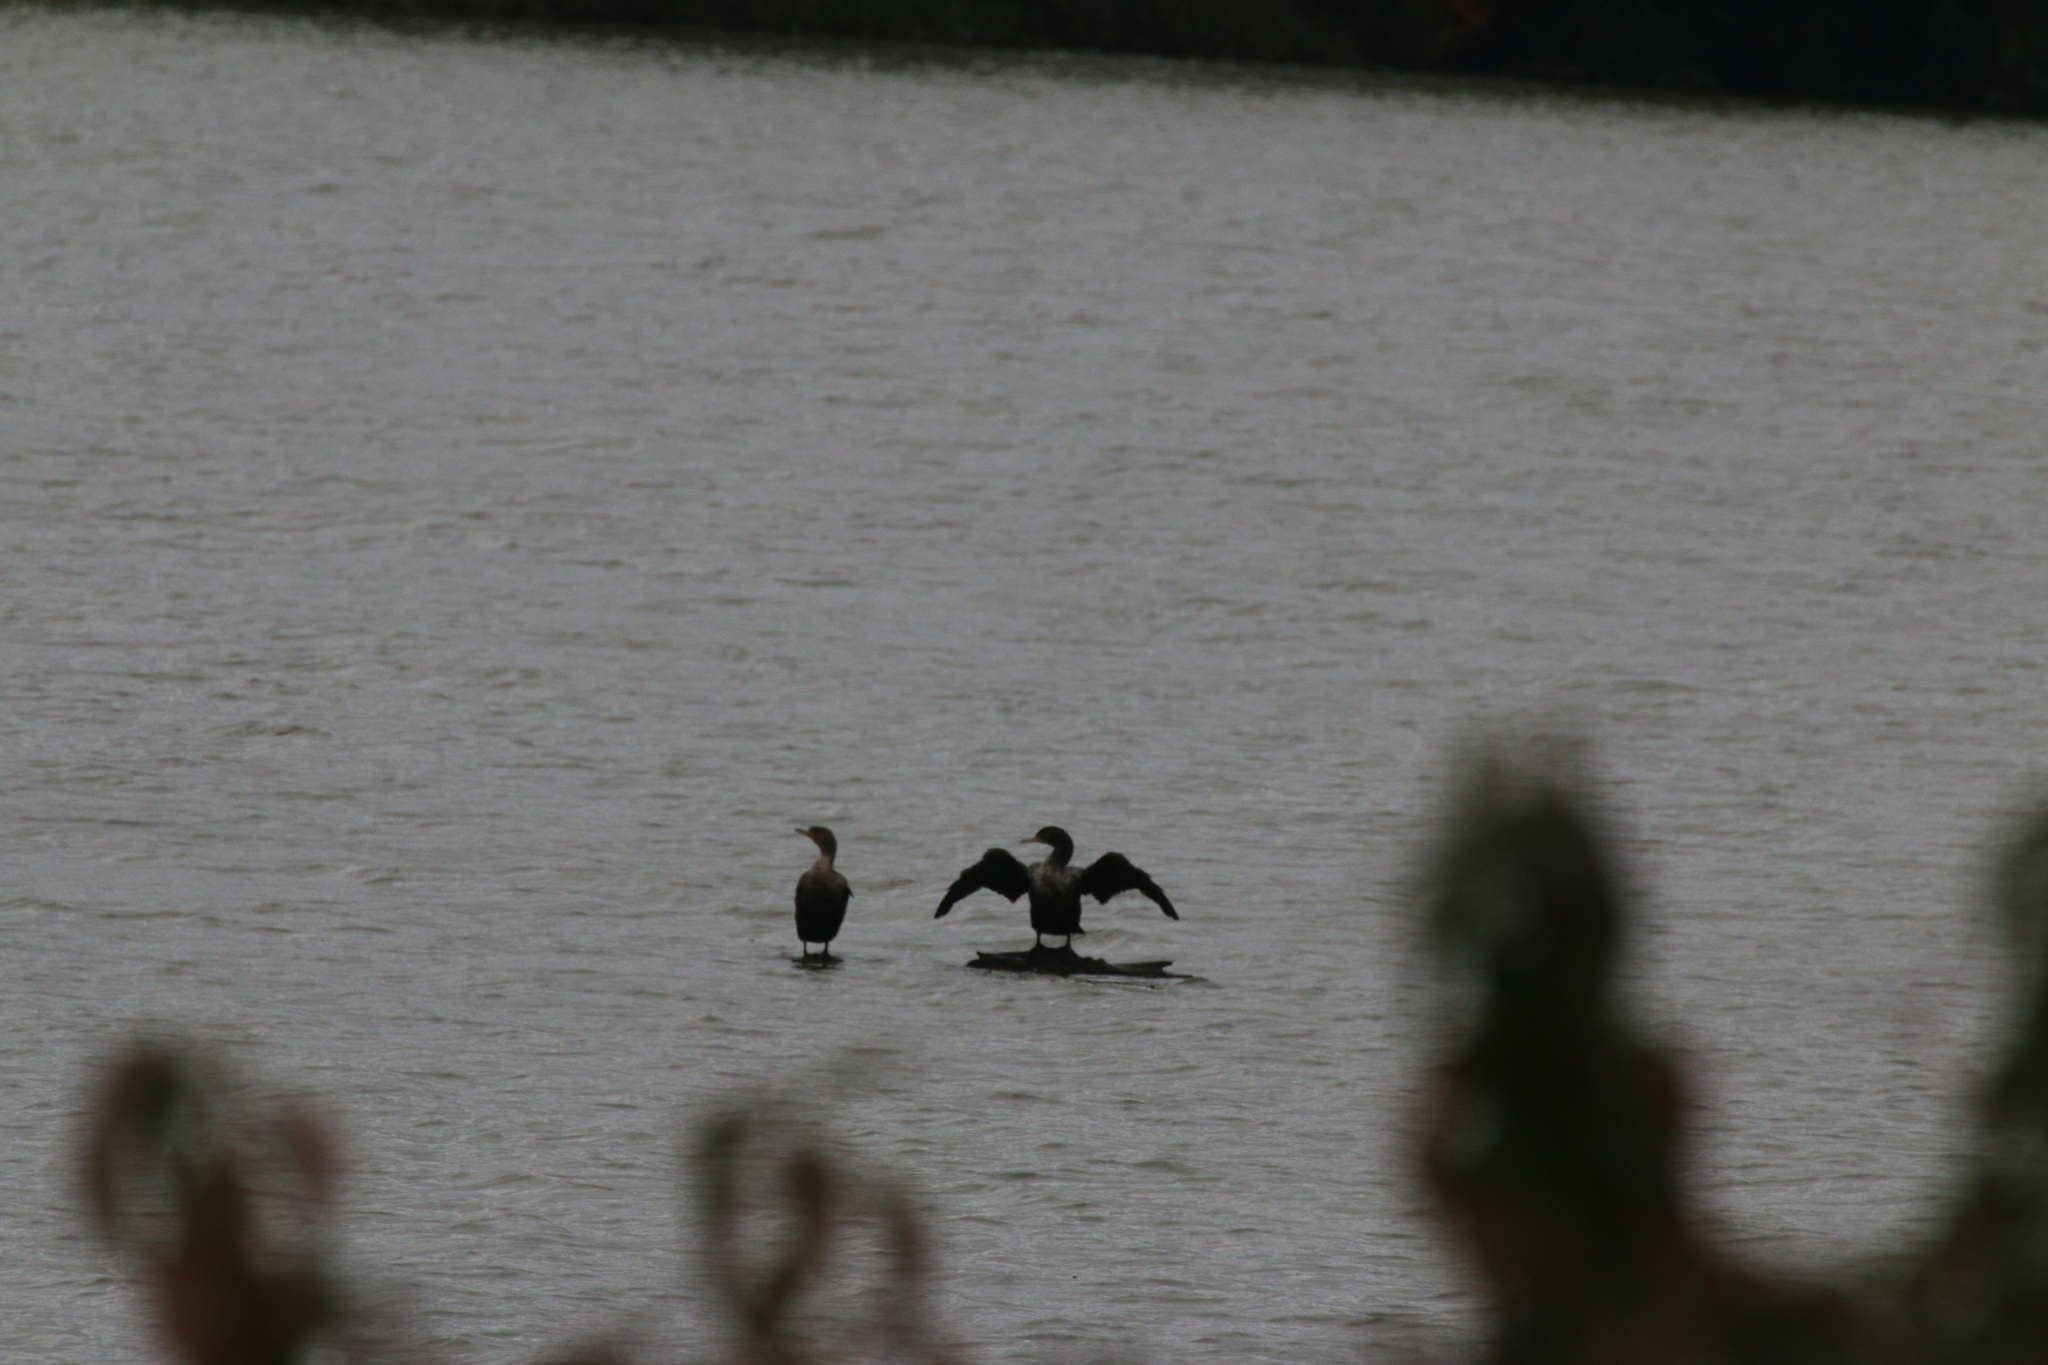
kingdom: Animalia
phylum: Chordata
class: Aves
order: Suliformes
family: Phalacrocoracidae
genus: Phalacrocorax
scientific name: Phalacrocorax auritus
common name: Double-crested cormorant
